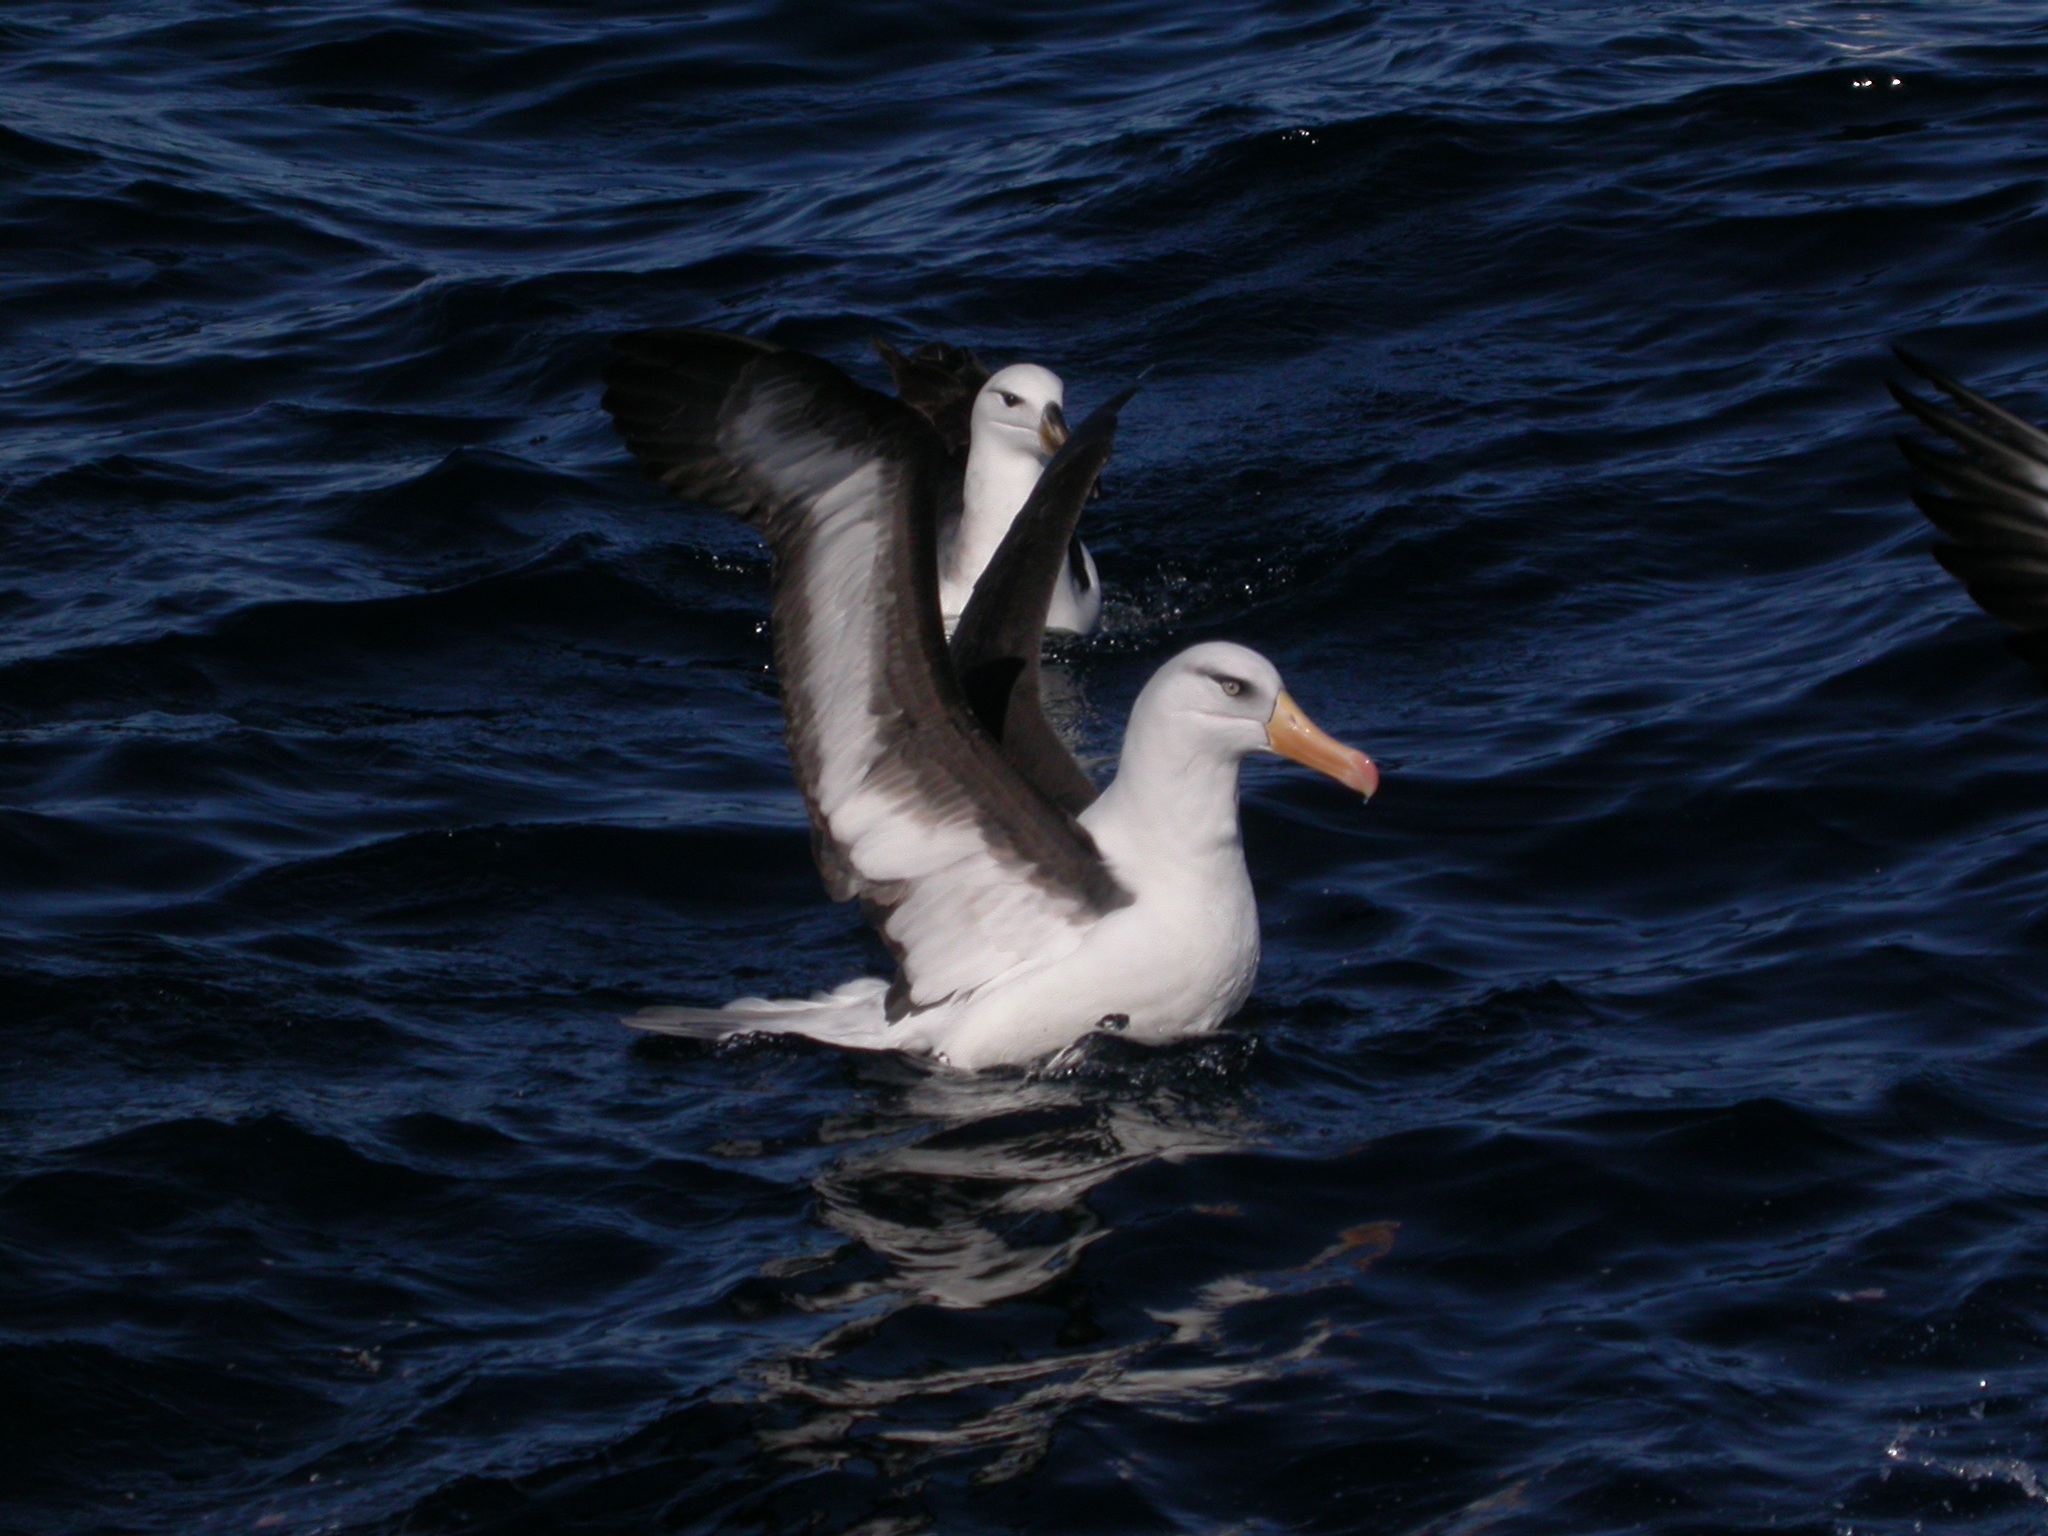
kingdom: Animalia
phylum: Chordata
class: Aves
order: Procellariiformes
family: Diomedeidae
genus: Thalassarche
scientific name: Thalassarche impavida
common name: Campbell albatross
